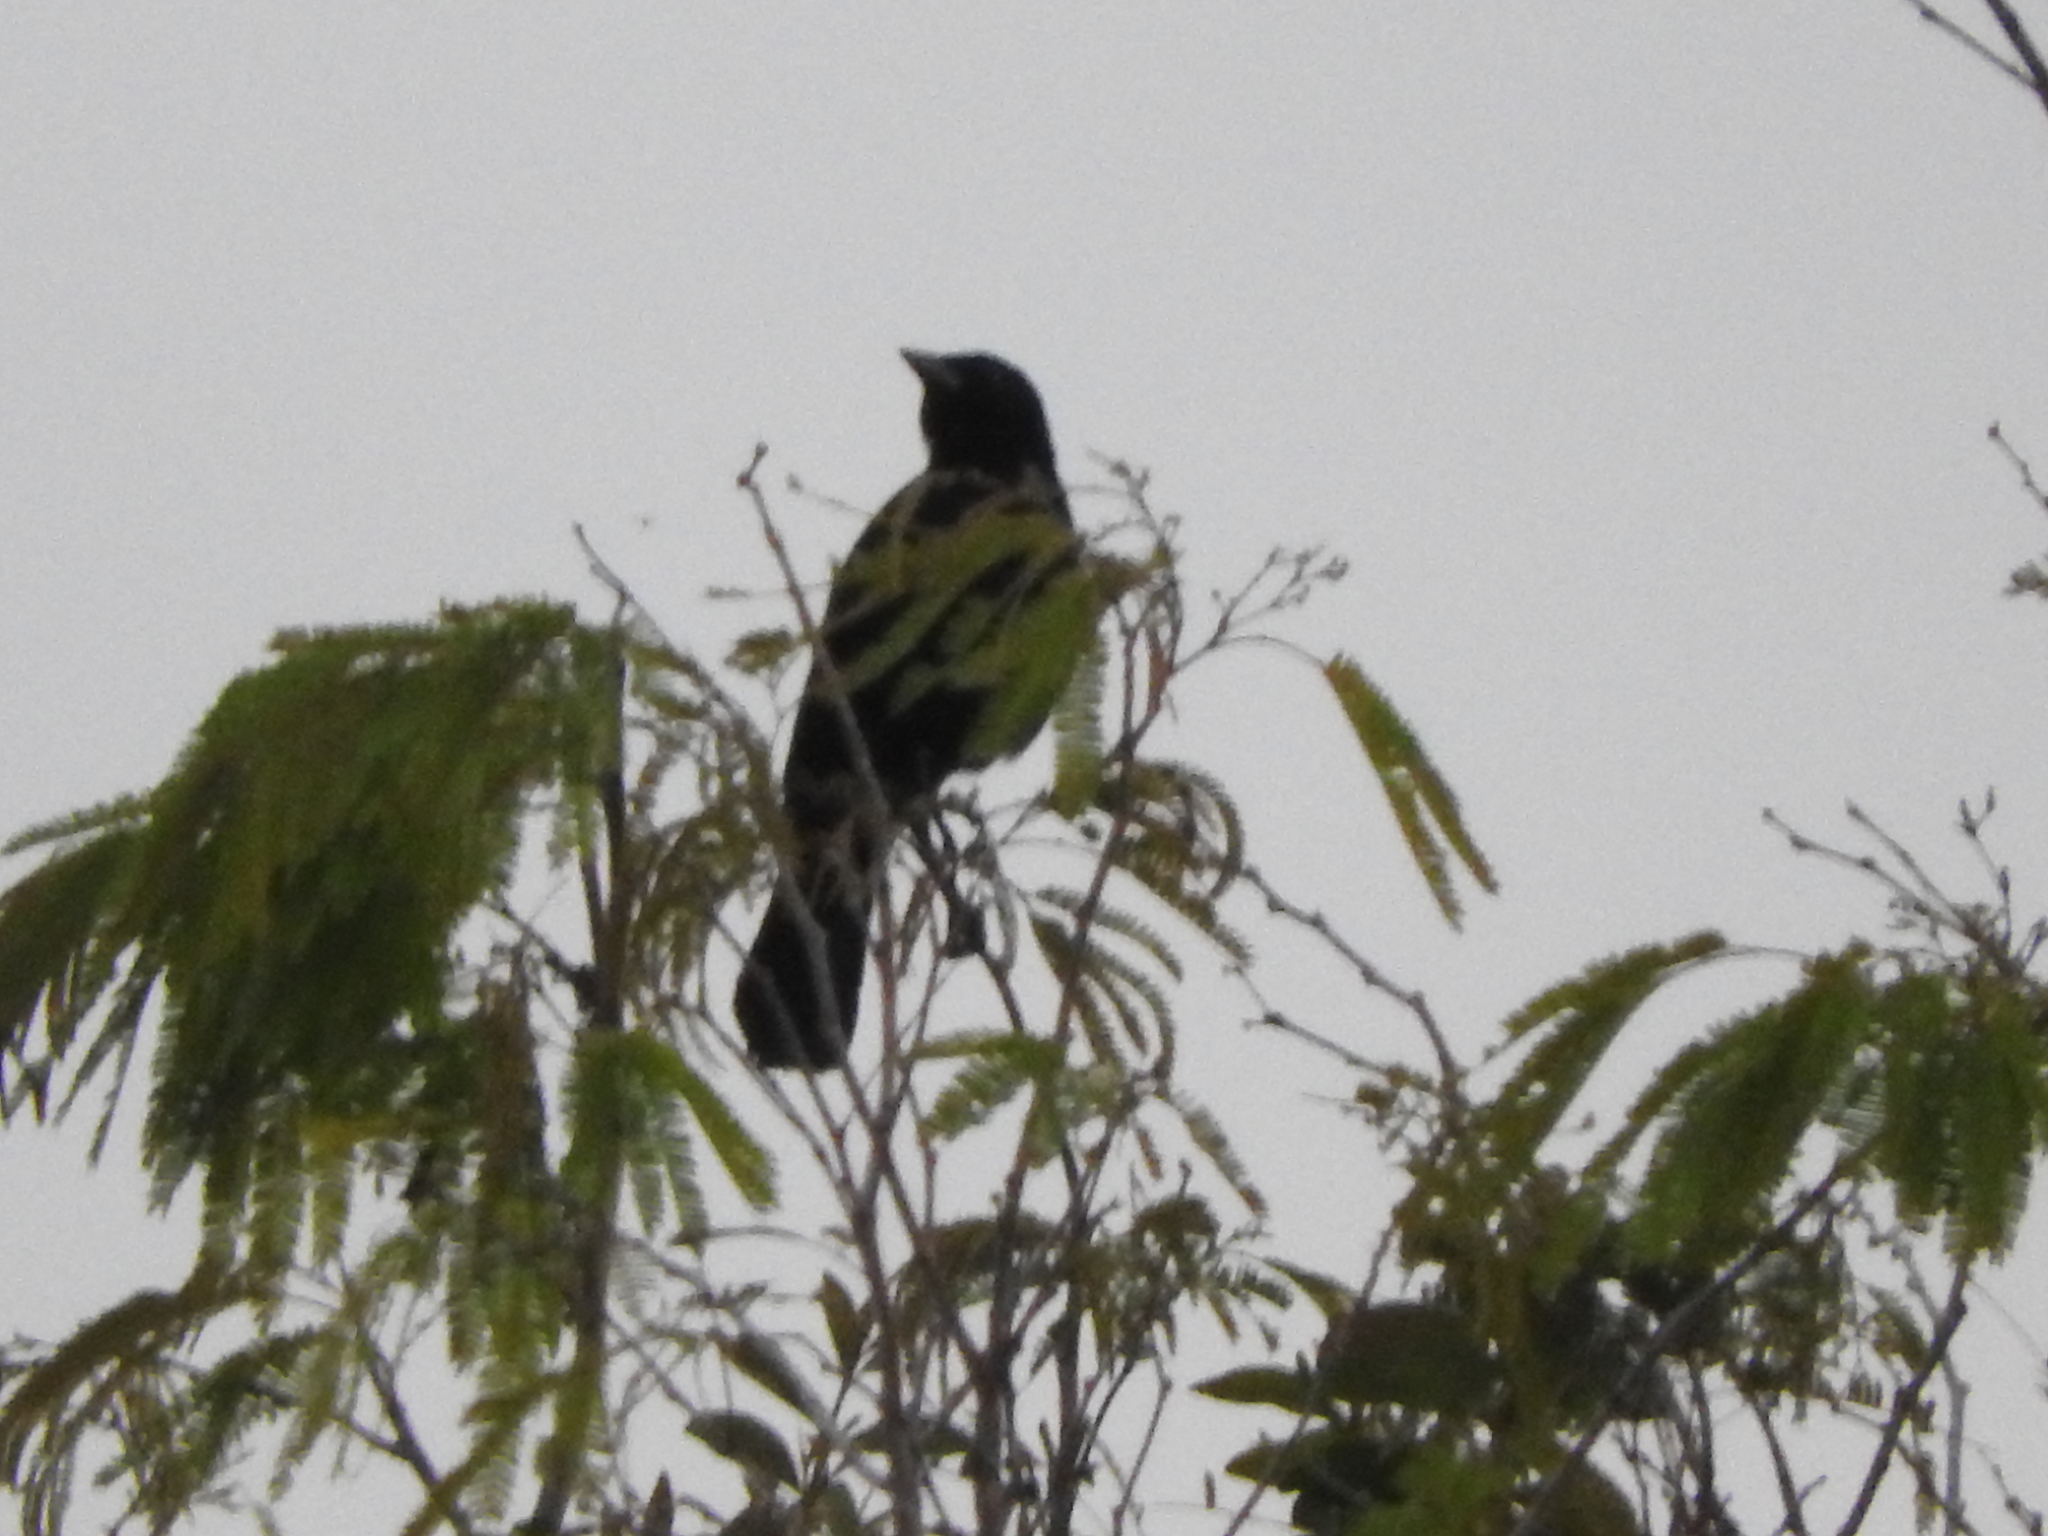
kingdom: Animalia
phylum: Chordata
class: Aves
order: Passeriformes
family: Icteridae
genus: Dives
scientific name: Dives dives
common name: Melodious blackbird
